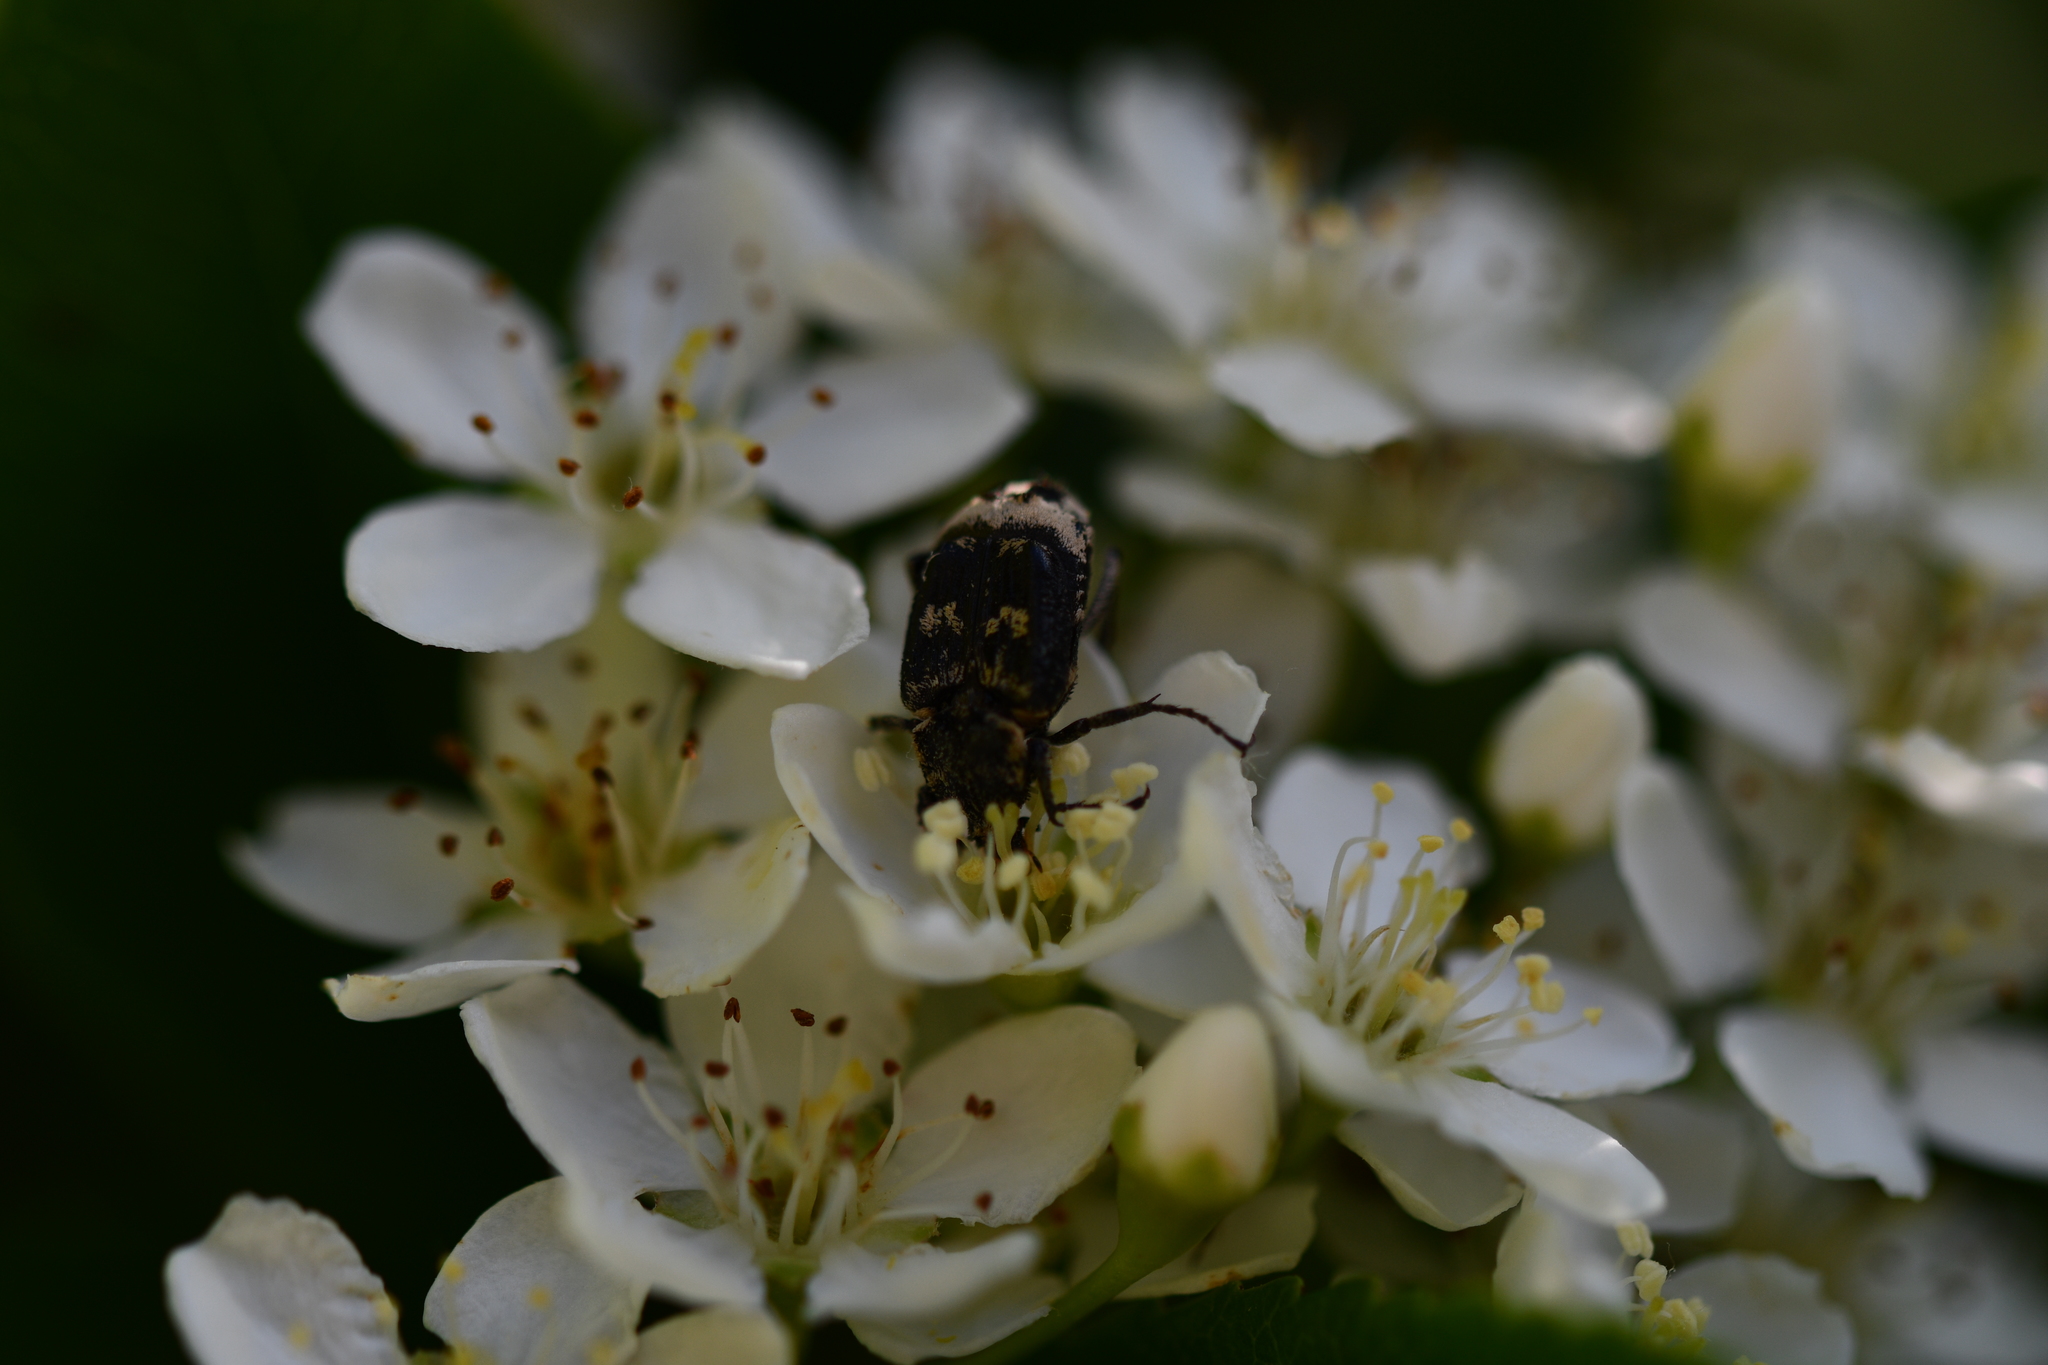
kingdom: Animalia
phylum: Arthropoda
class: Insecta
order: Coleoptera
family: Scarabaeidae
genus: Valgus
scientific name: Valgus hemipterus
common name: Bug flower chafer
